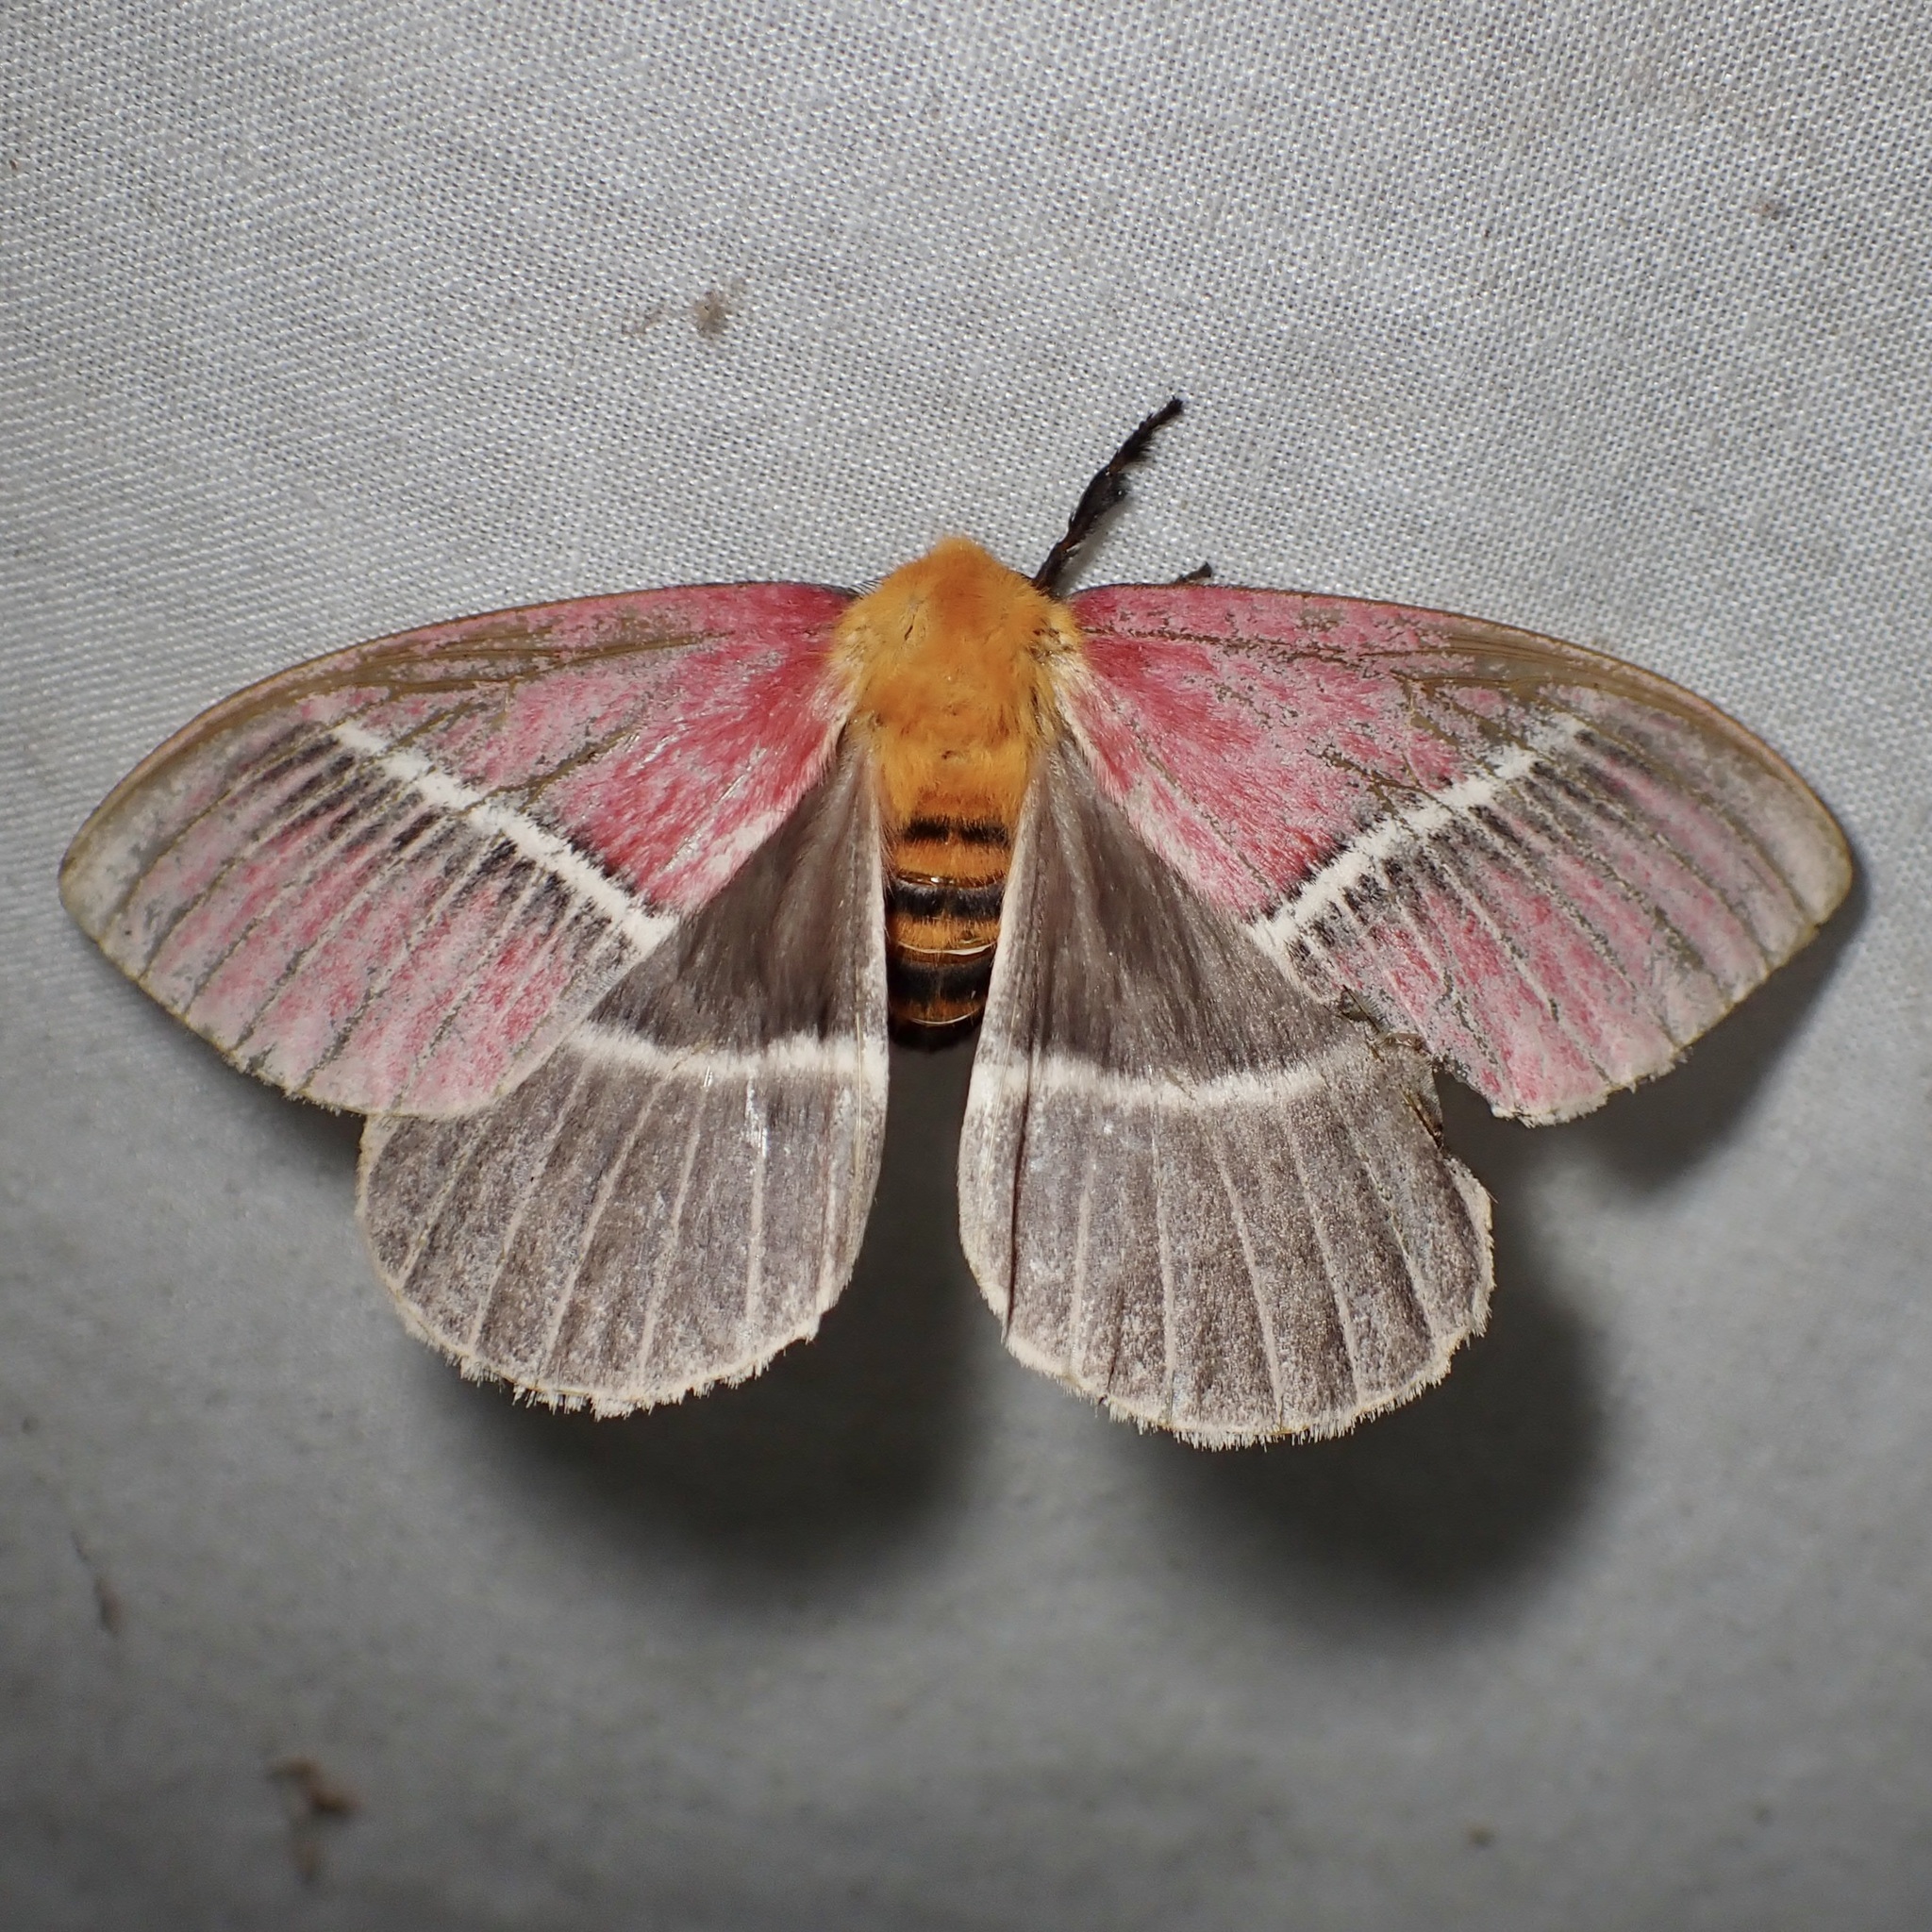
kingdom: Animalia
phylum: Arthropoda
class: Insecta
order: Lepidoptera
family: Saturniidae
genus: Pseudodirphia
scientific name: Pseudodirphia menander
